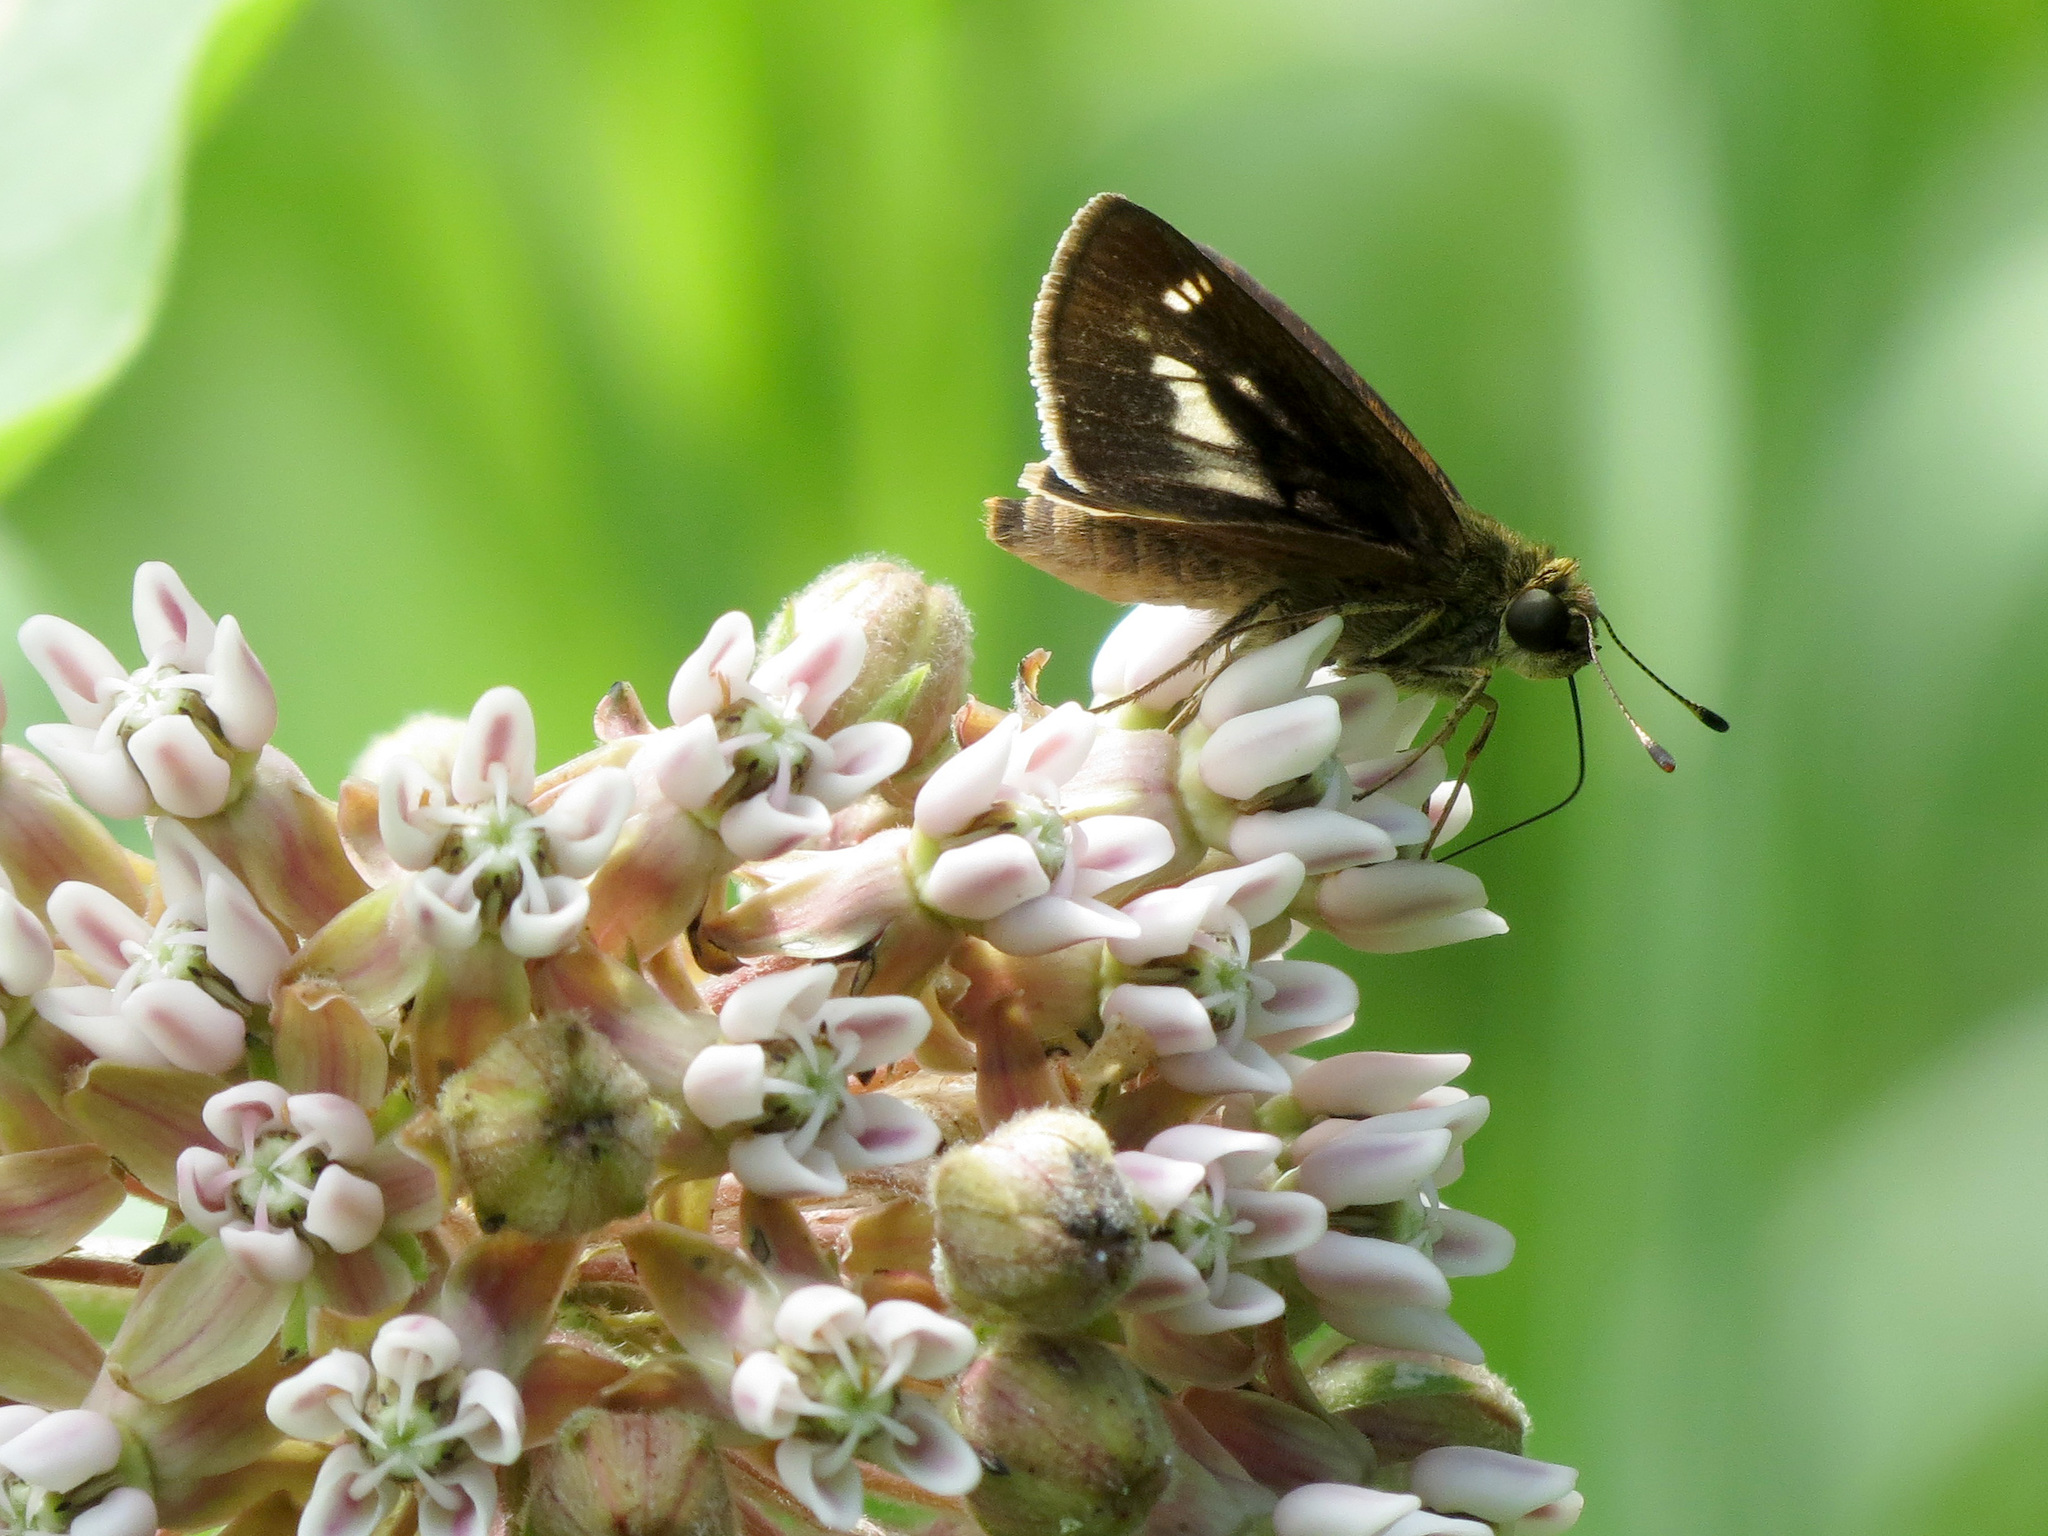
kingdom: Animalia
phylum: Arthropoda
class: Insecta
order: Lepidoptera
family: Hesperiidae
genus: Vernia
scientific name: Vernia verna
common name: Little glassywing
